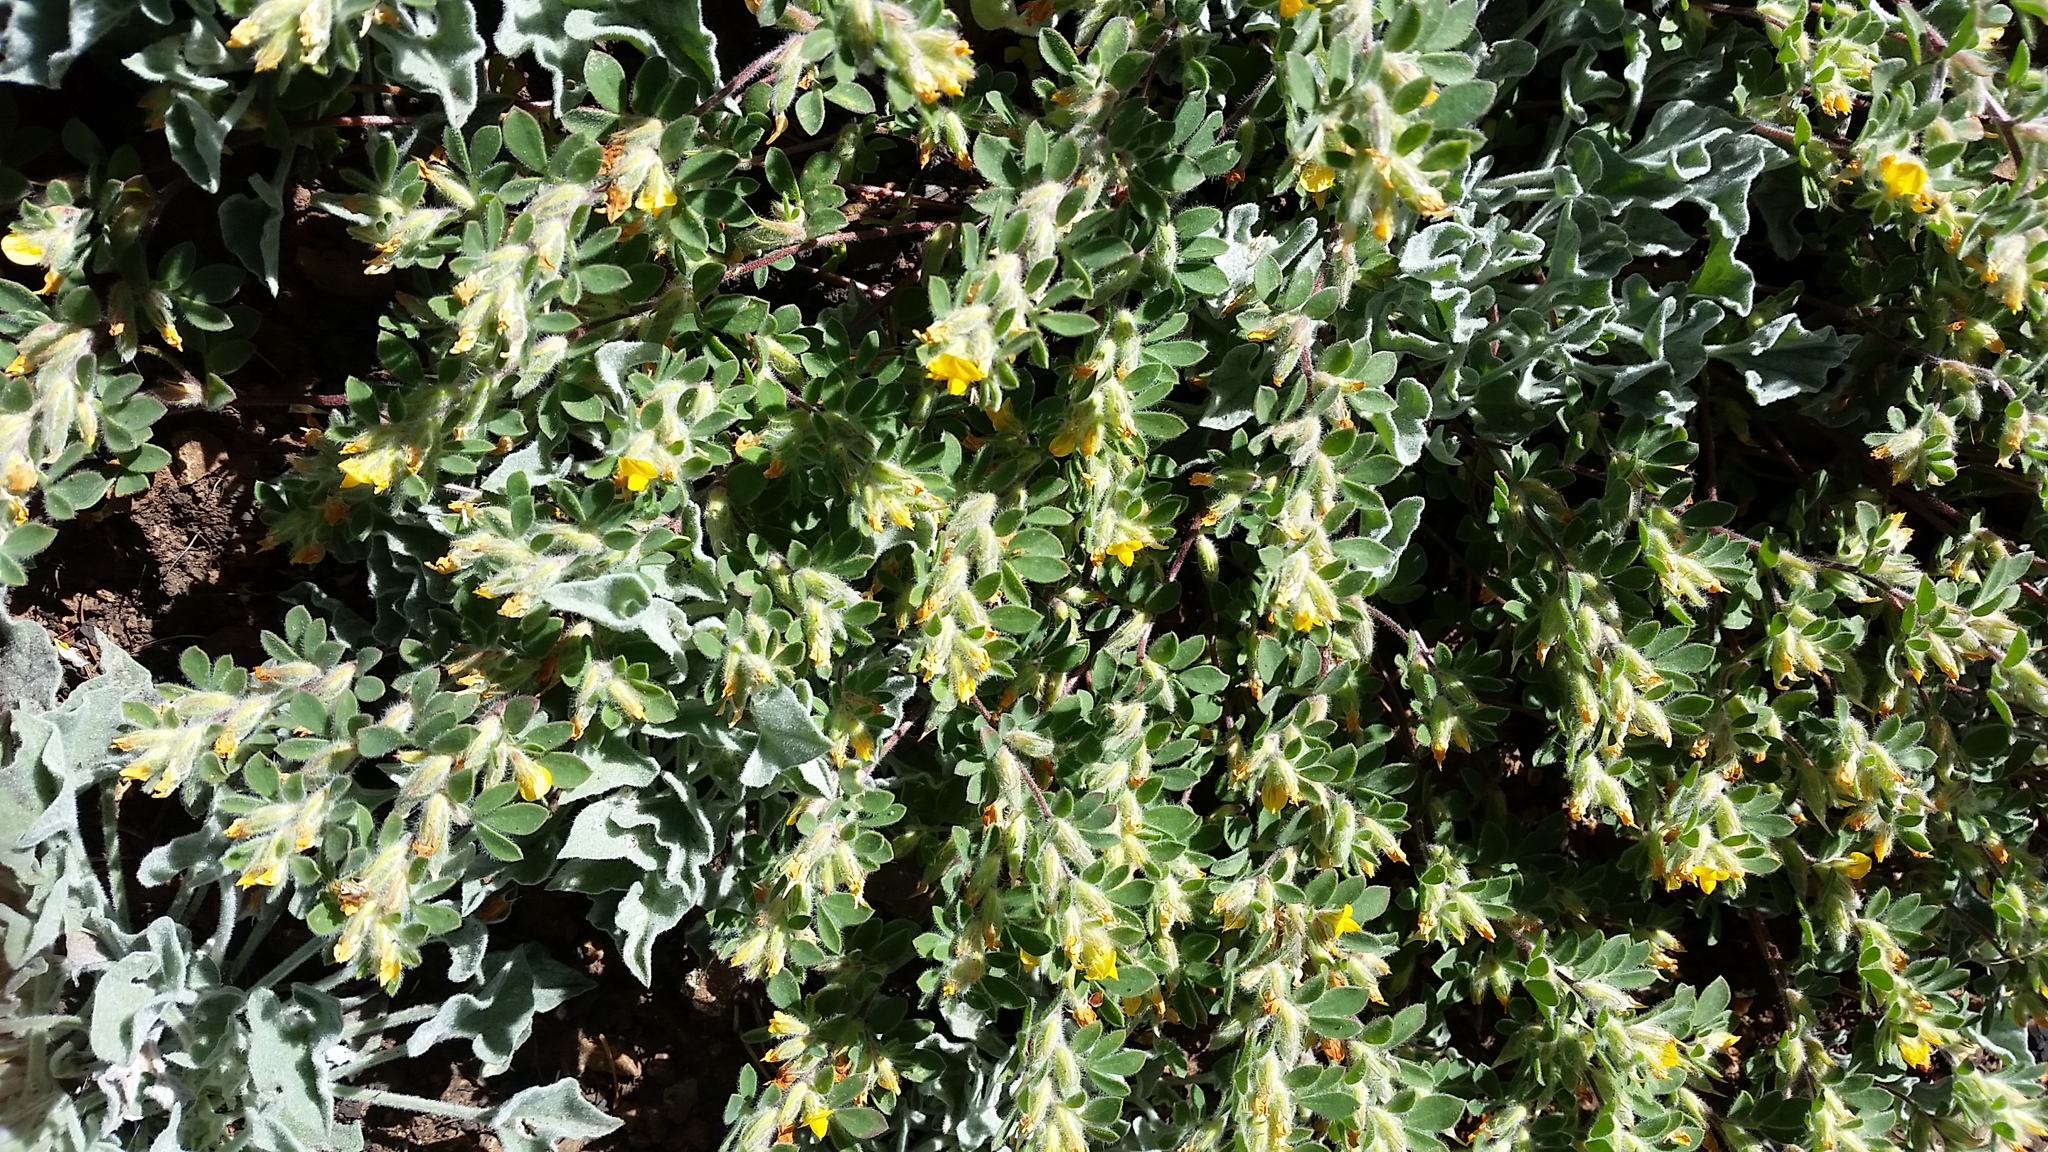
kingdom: Plantae
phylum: Tracheophyta
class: Magnoliopsida
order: Fabales
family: Fabaceae
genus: Acmispon
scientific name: Acmispon brachycarpus
